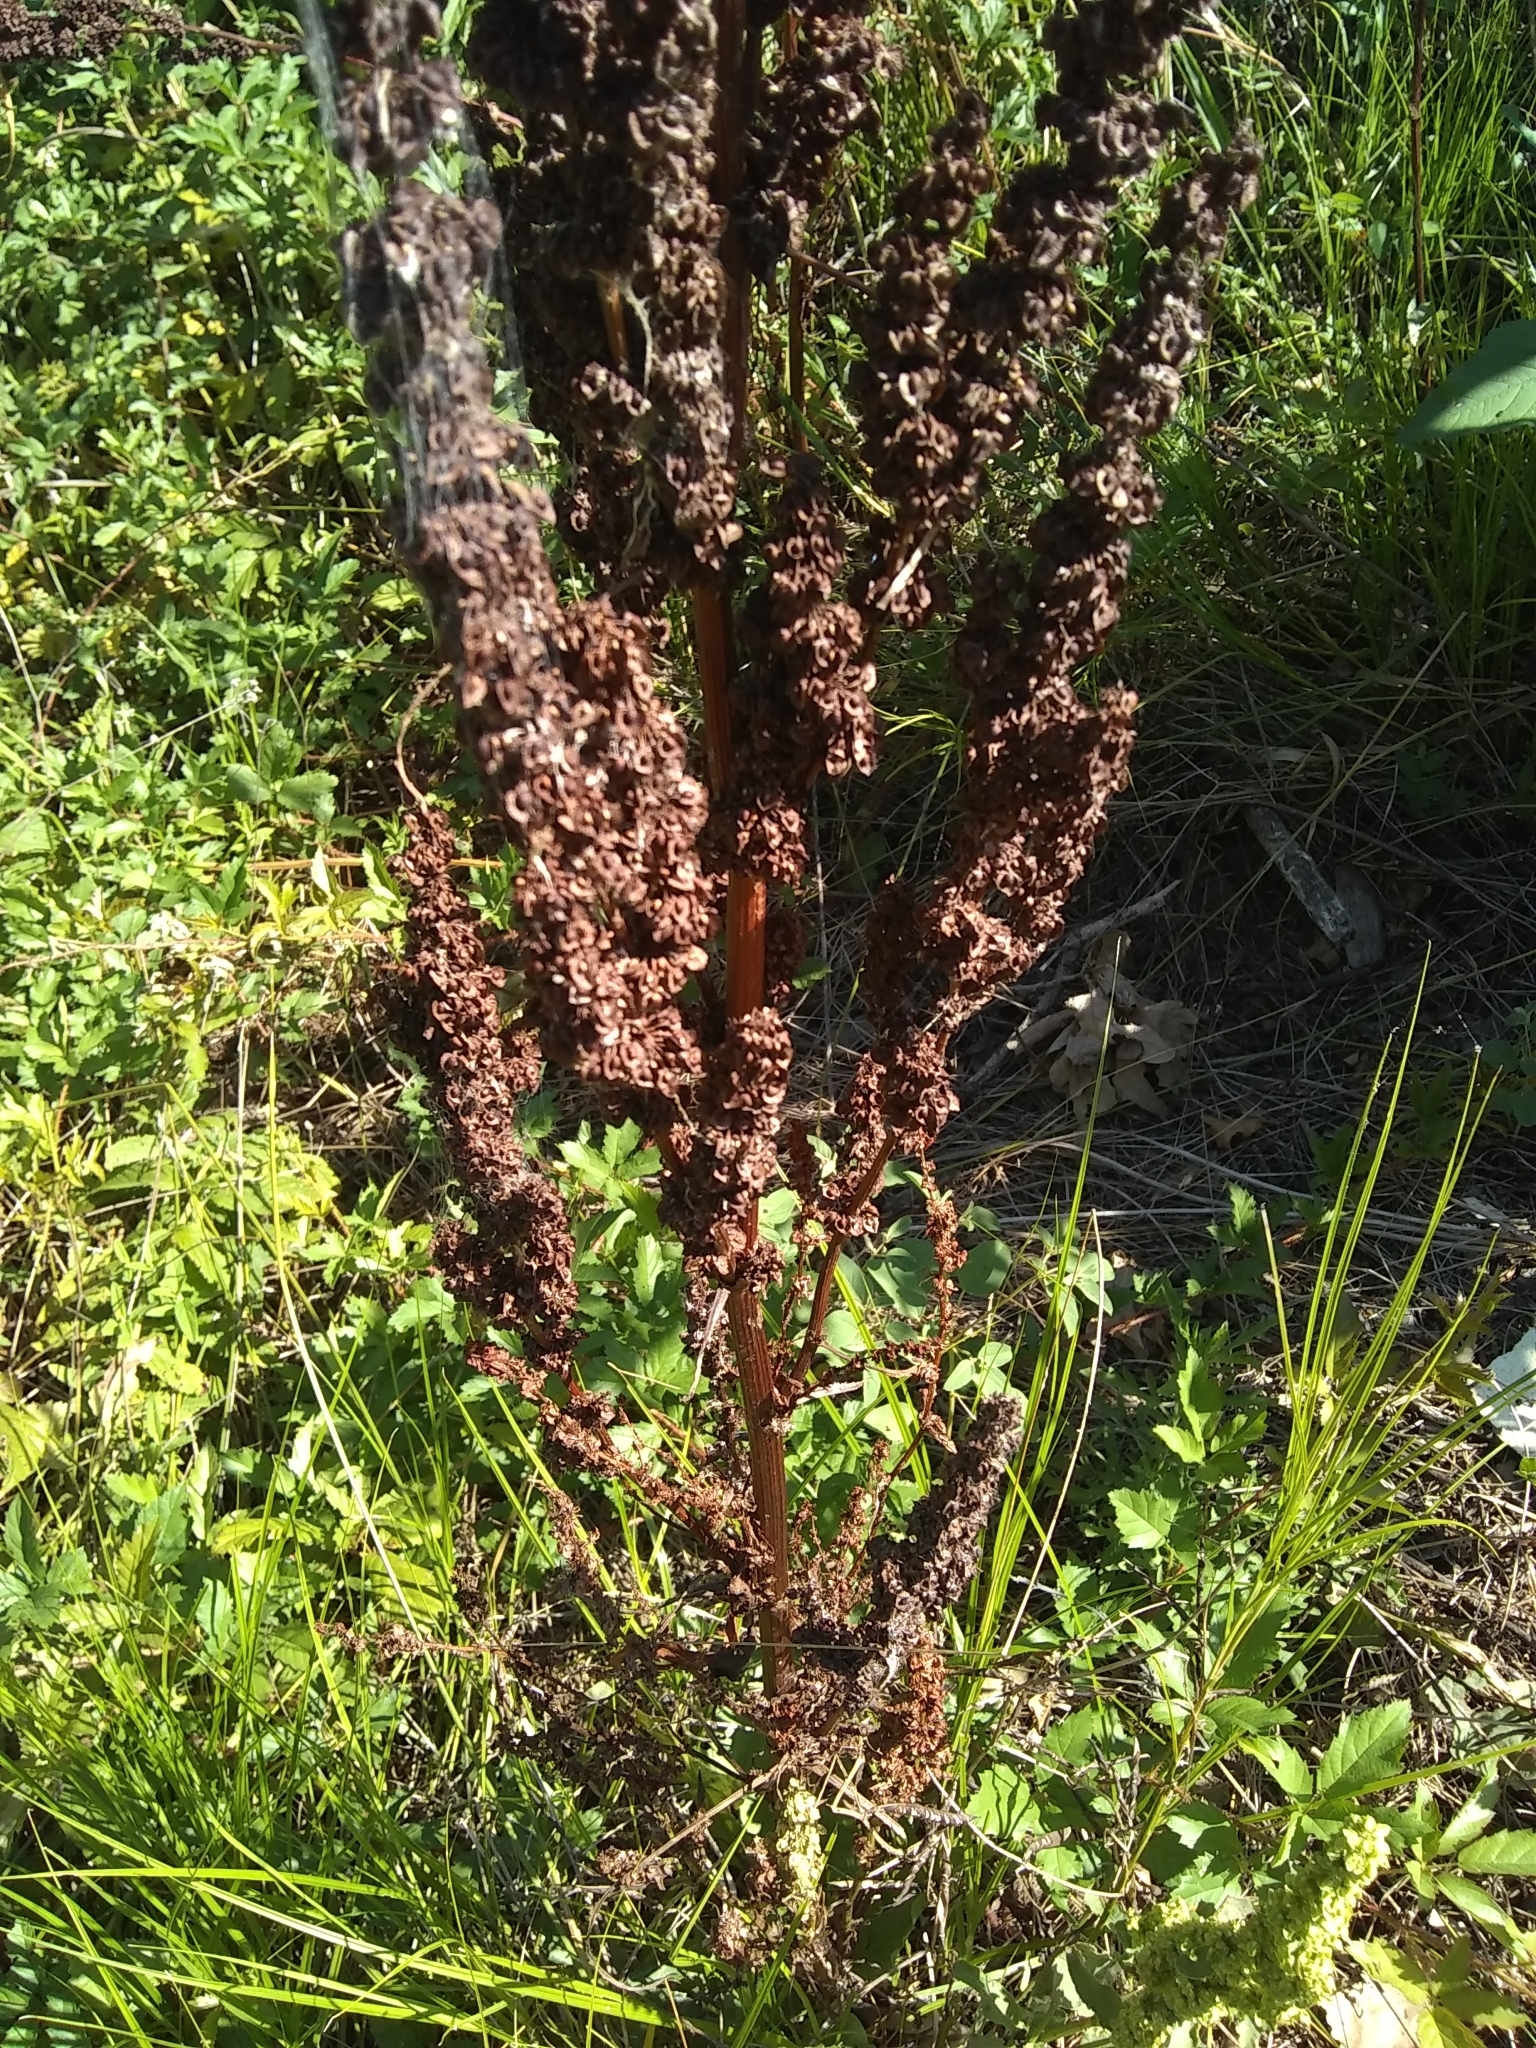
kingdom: Plantae
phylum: Tracheophyta
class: Magnoliopsida
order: Caryophyllales
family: Polygonaceae
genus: Rumex
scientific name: Rumex crispus
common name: Curled dock
